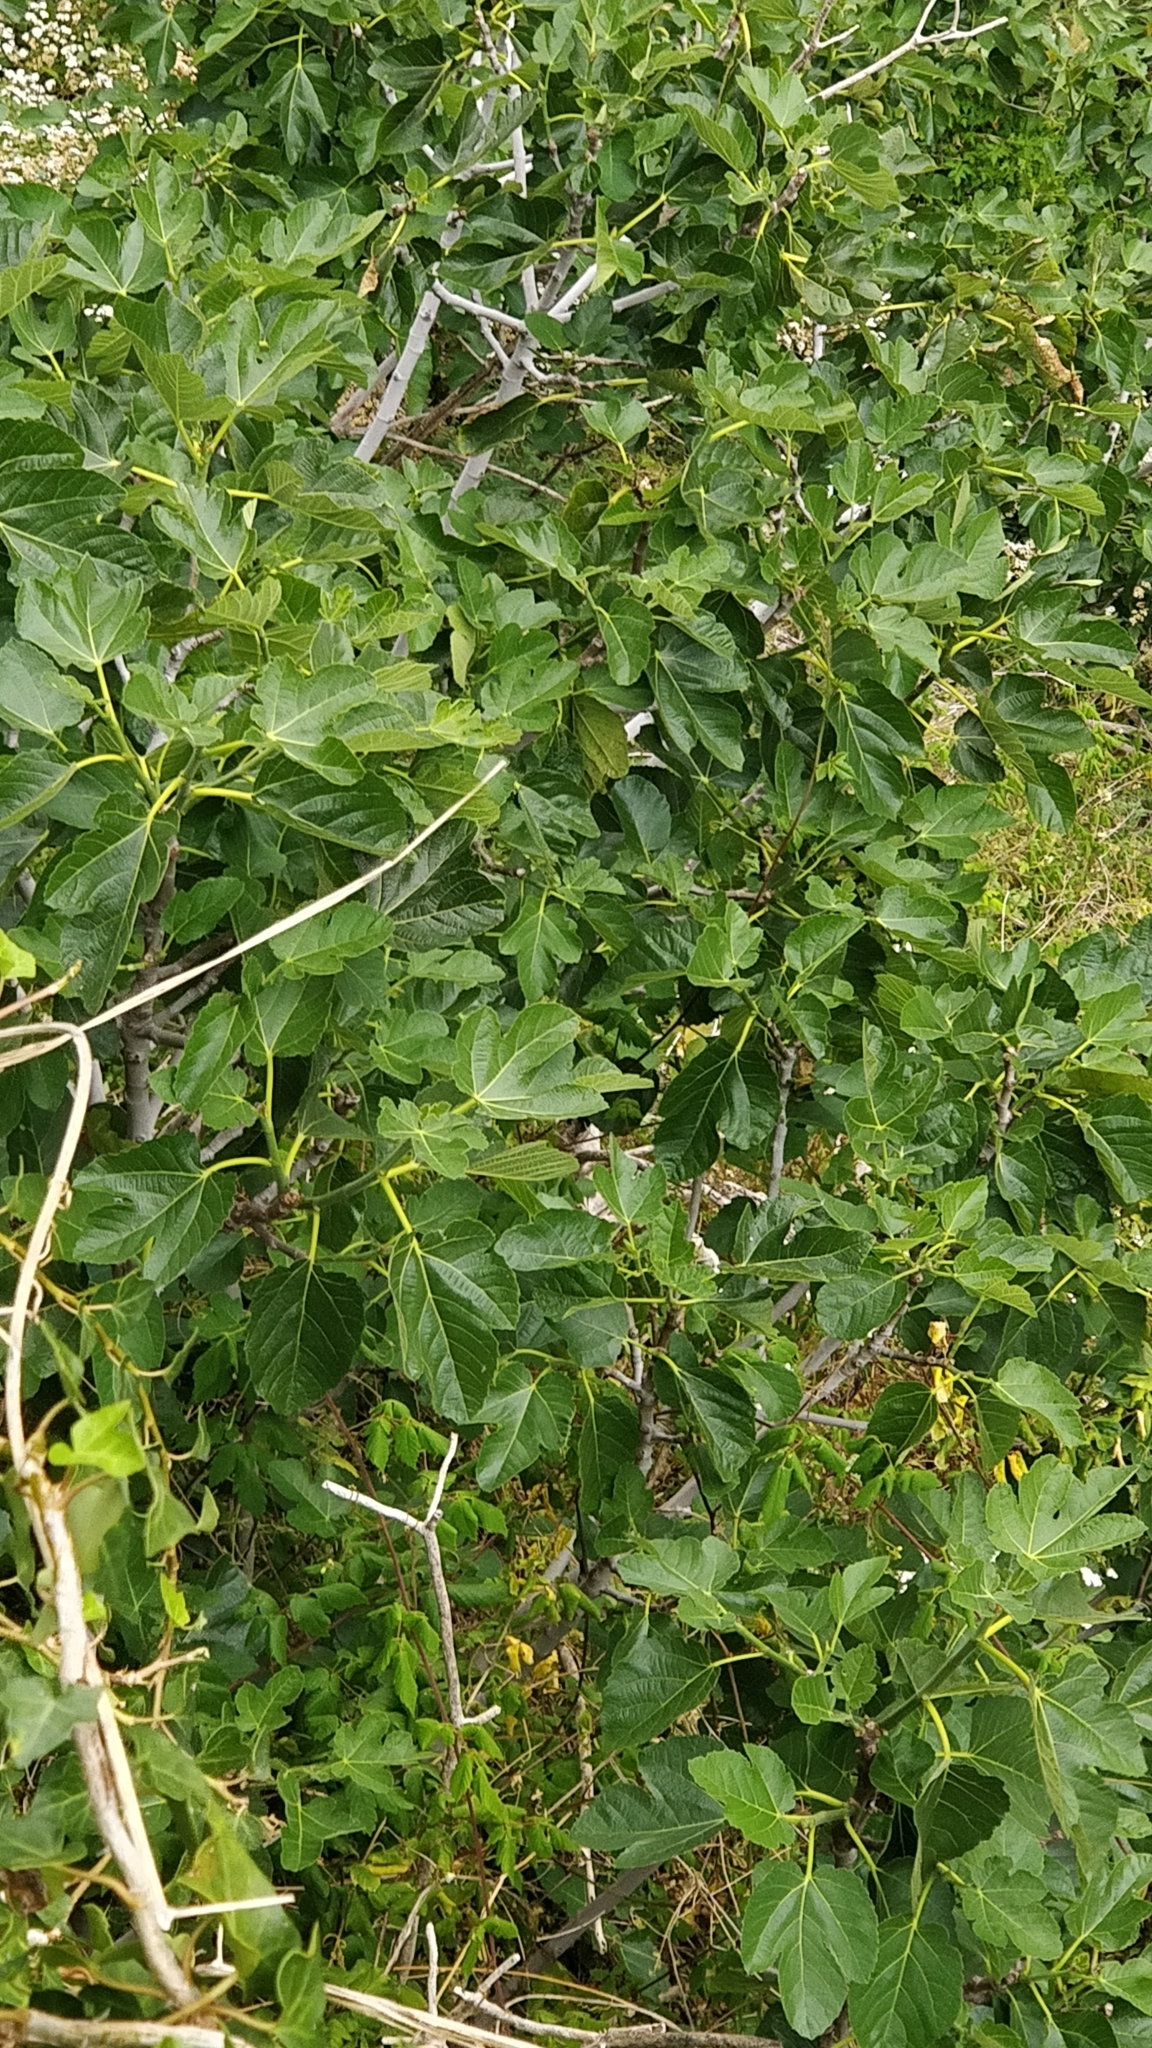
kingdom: Plantae
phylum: Tracheophyta
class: Magnoliopsida
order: Rosales
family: Moraceae
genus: Ficus
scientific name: Ficus carica
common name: Fig
